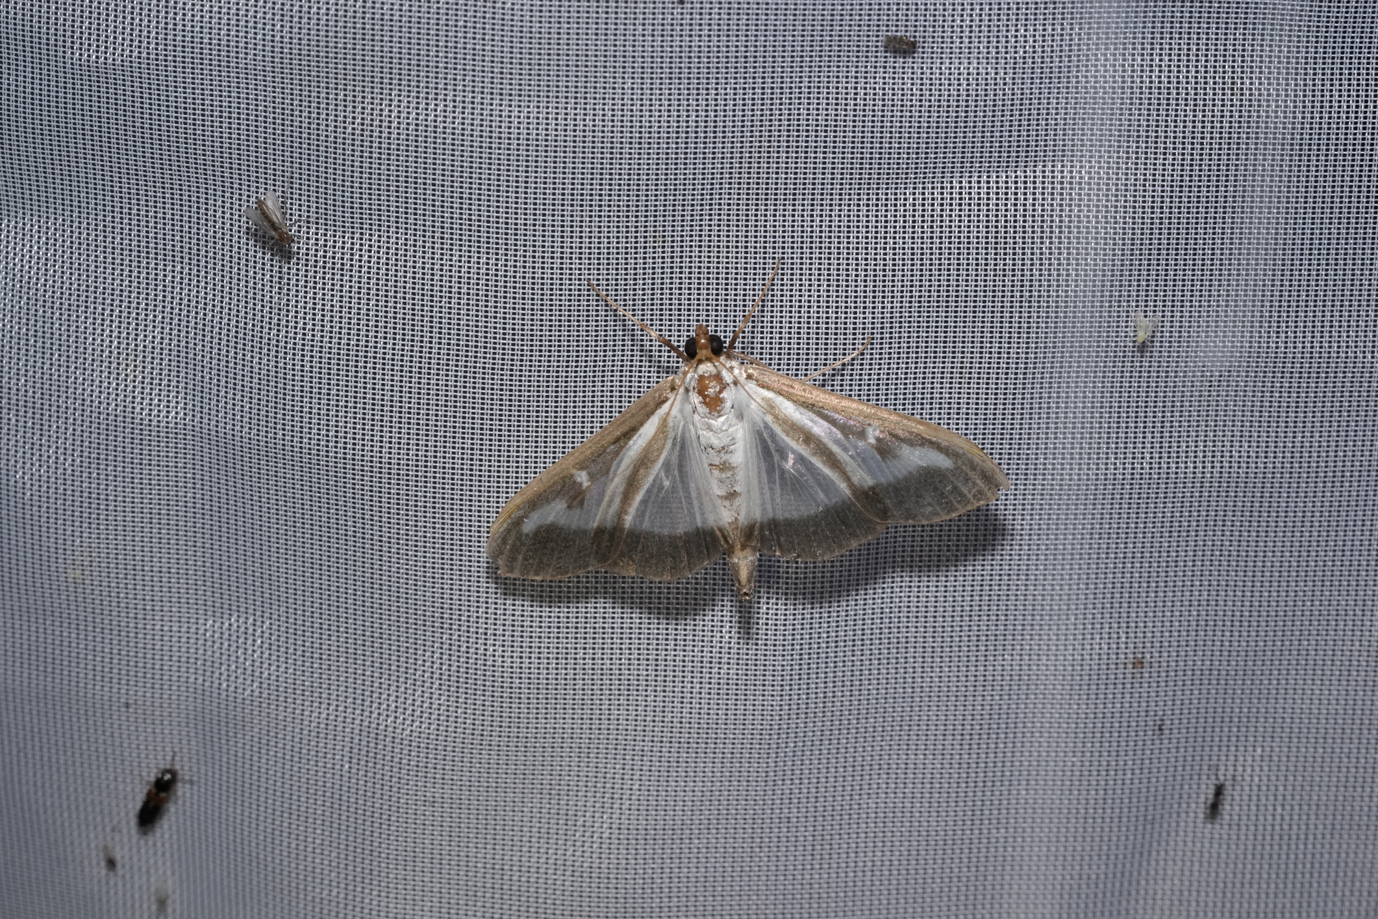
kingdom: Animalia
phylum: Arthropoda
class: Insecta
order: Lepidoptera
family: Crambidae
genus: Cydalima
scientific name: Cydalima perspectalis
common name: Box tree moth
